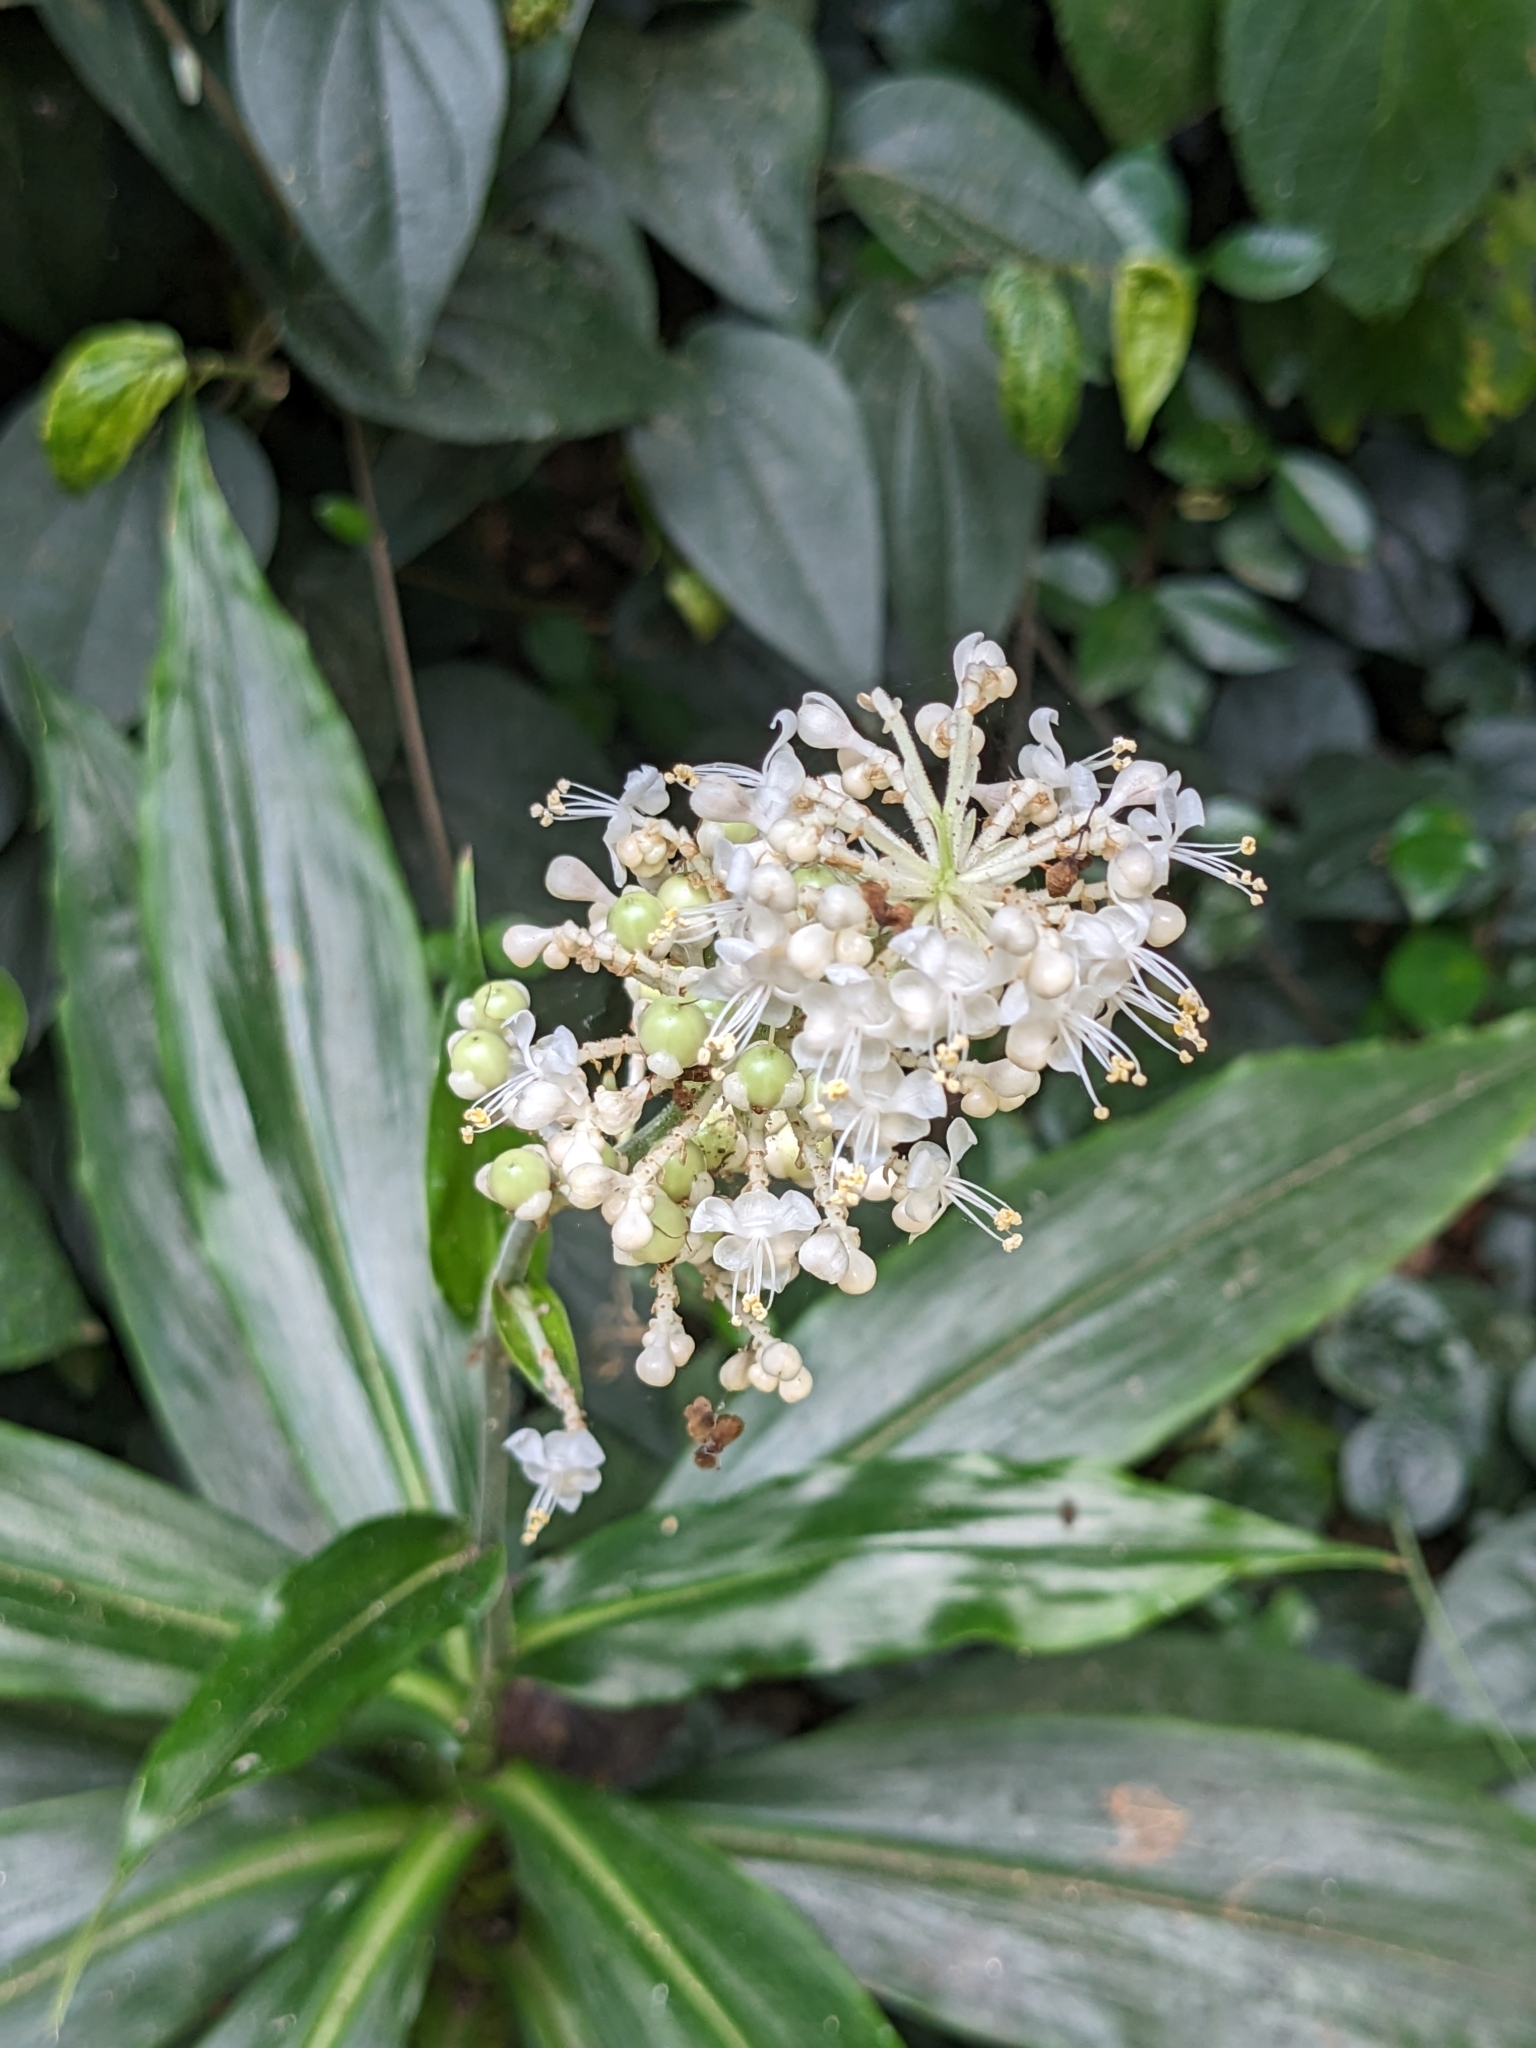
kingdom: Plantae
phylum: Tracheophyta
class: Liliopsida
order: Commelinales
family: Commelinaceae
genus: Pollia
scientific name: Pollia japonica
